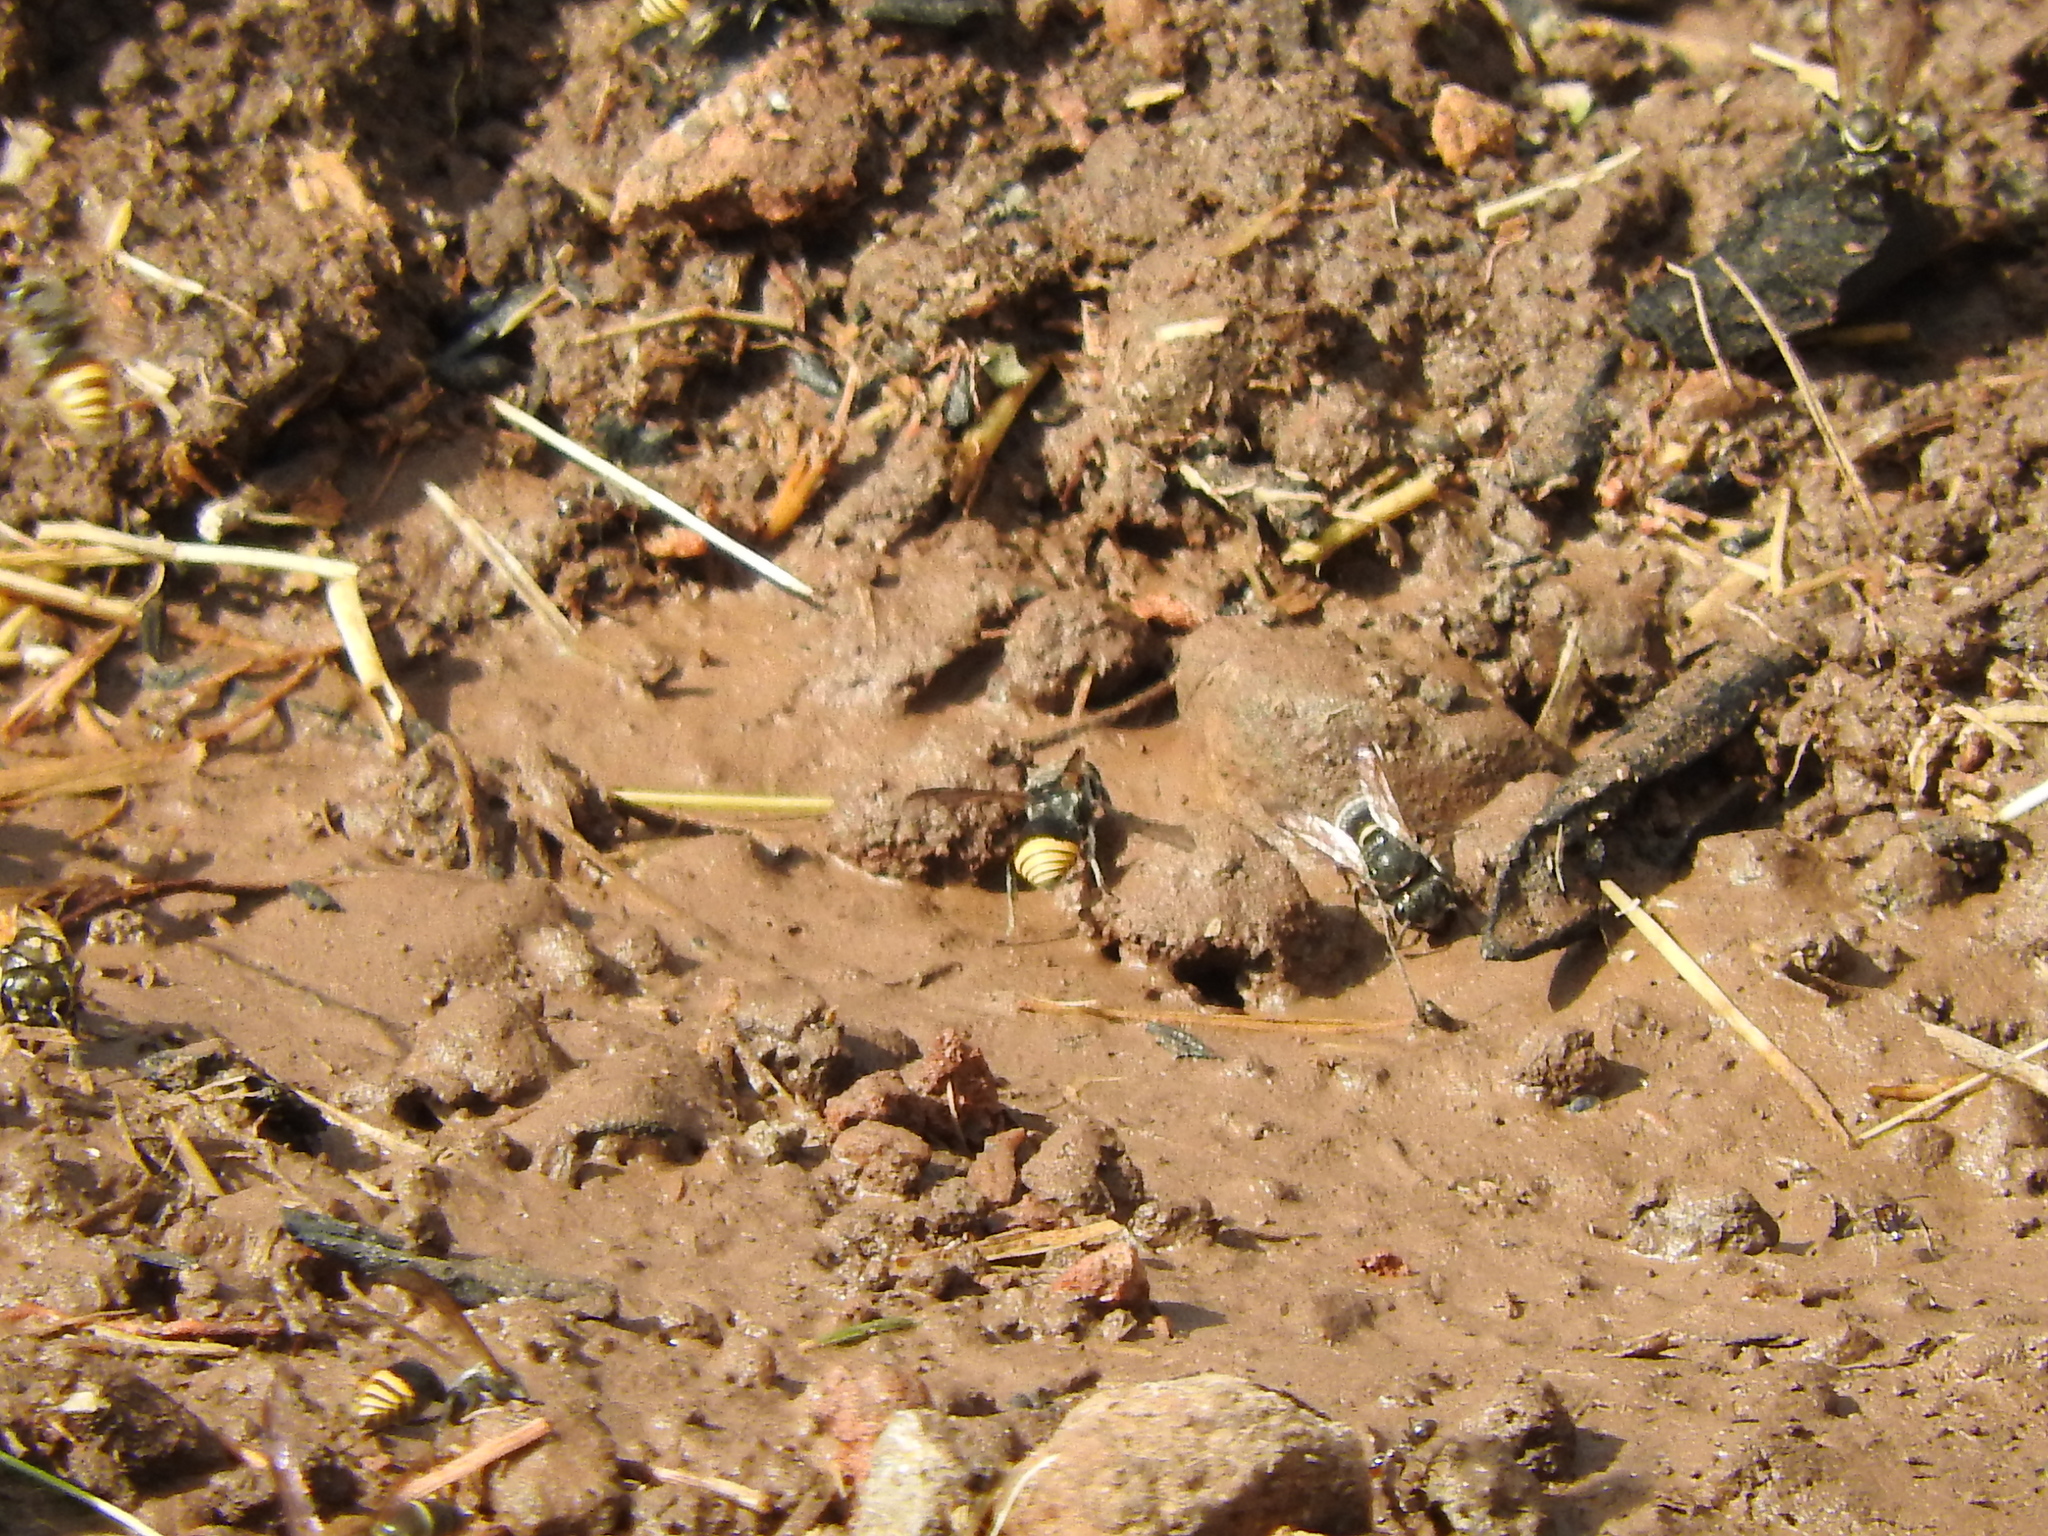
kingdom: Animalia
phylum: Arthropoda
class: Insecta
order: Hymenoptera
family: Vespidae
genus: Brachygastra
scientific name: Brachygastra mellifica
